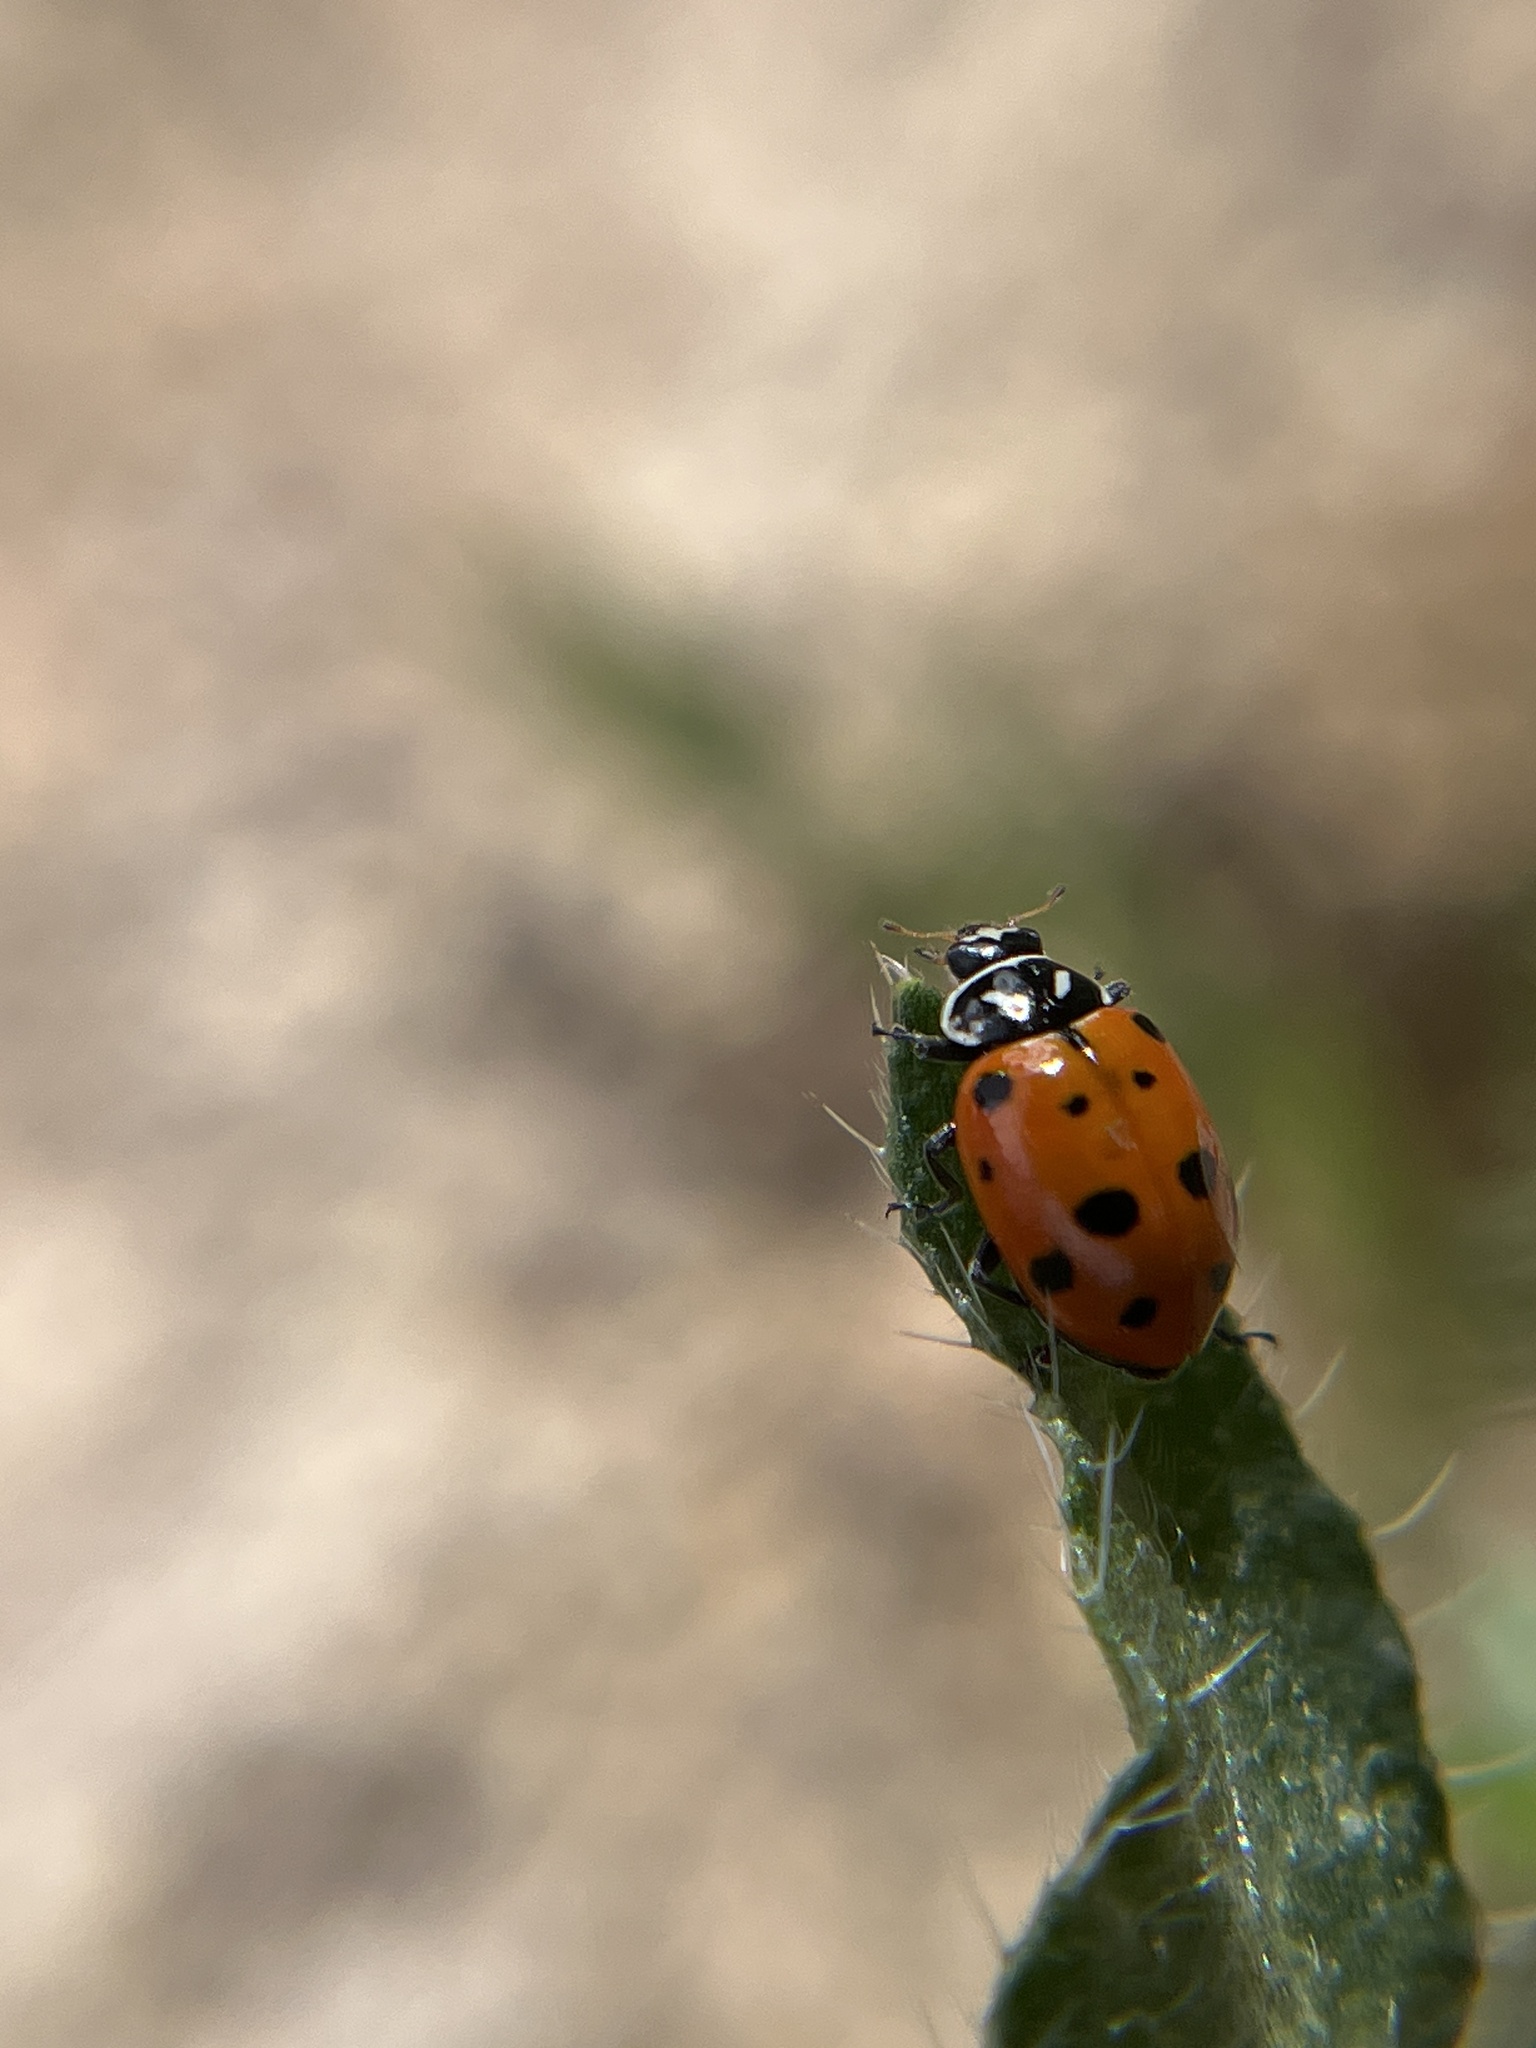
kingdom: Animalia
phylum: Arthropoda
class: Insecta
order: Coleoptera
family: Coccinellidae
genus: Hippodamia
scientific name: Hippodamia convergens
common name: Convergent lady beetle
